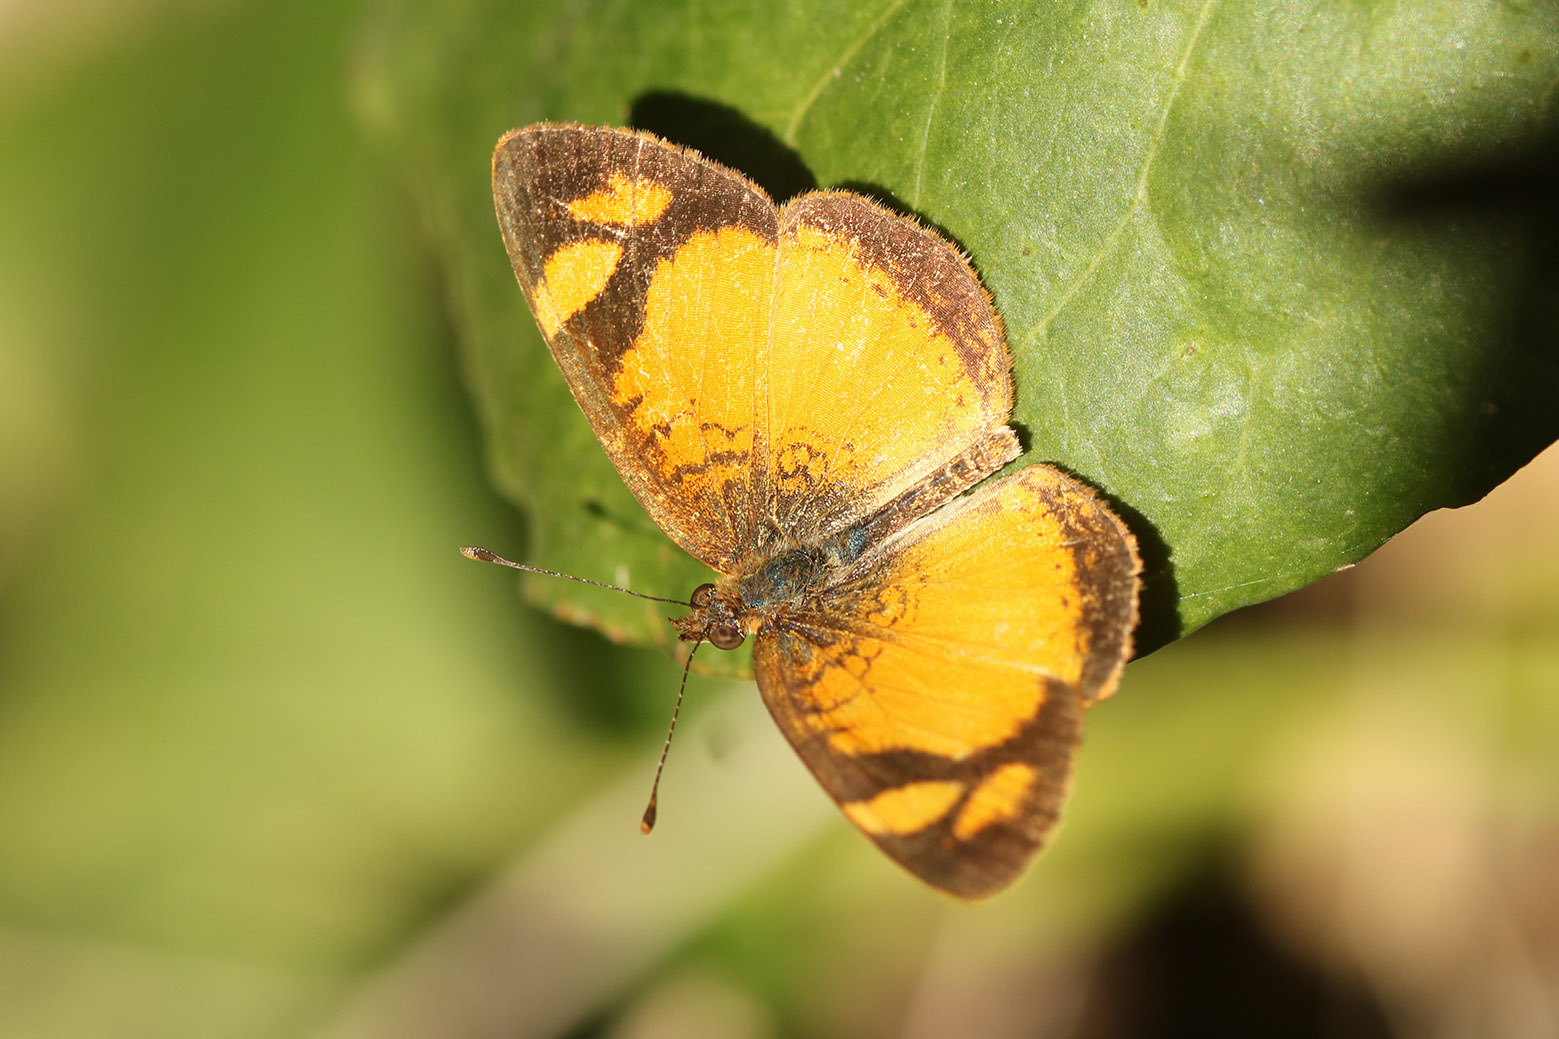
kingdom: Animalia
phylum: Arthropoda
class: Insecta
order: Lepidoptera
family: Nymphalidae
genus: Tegosa
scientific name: Tegosa claudina
